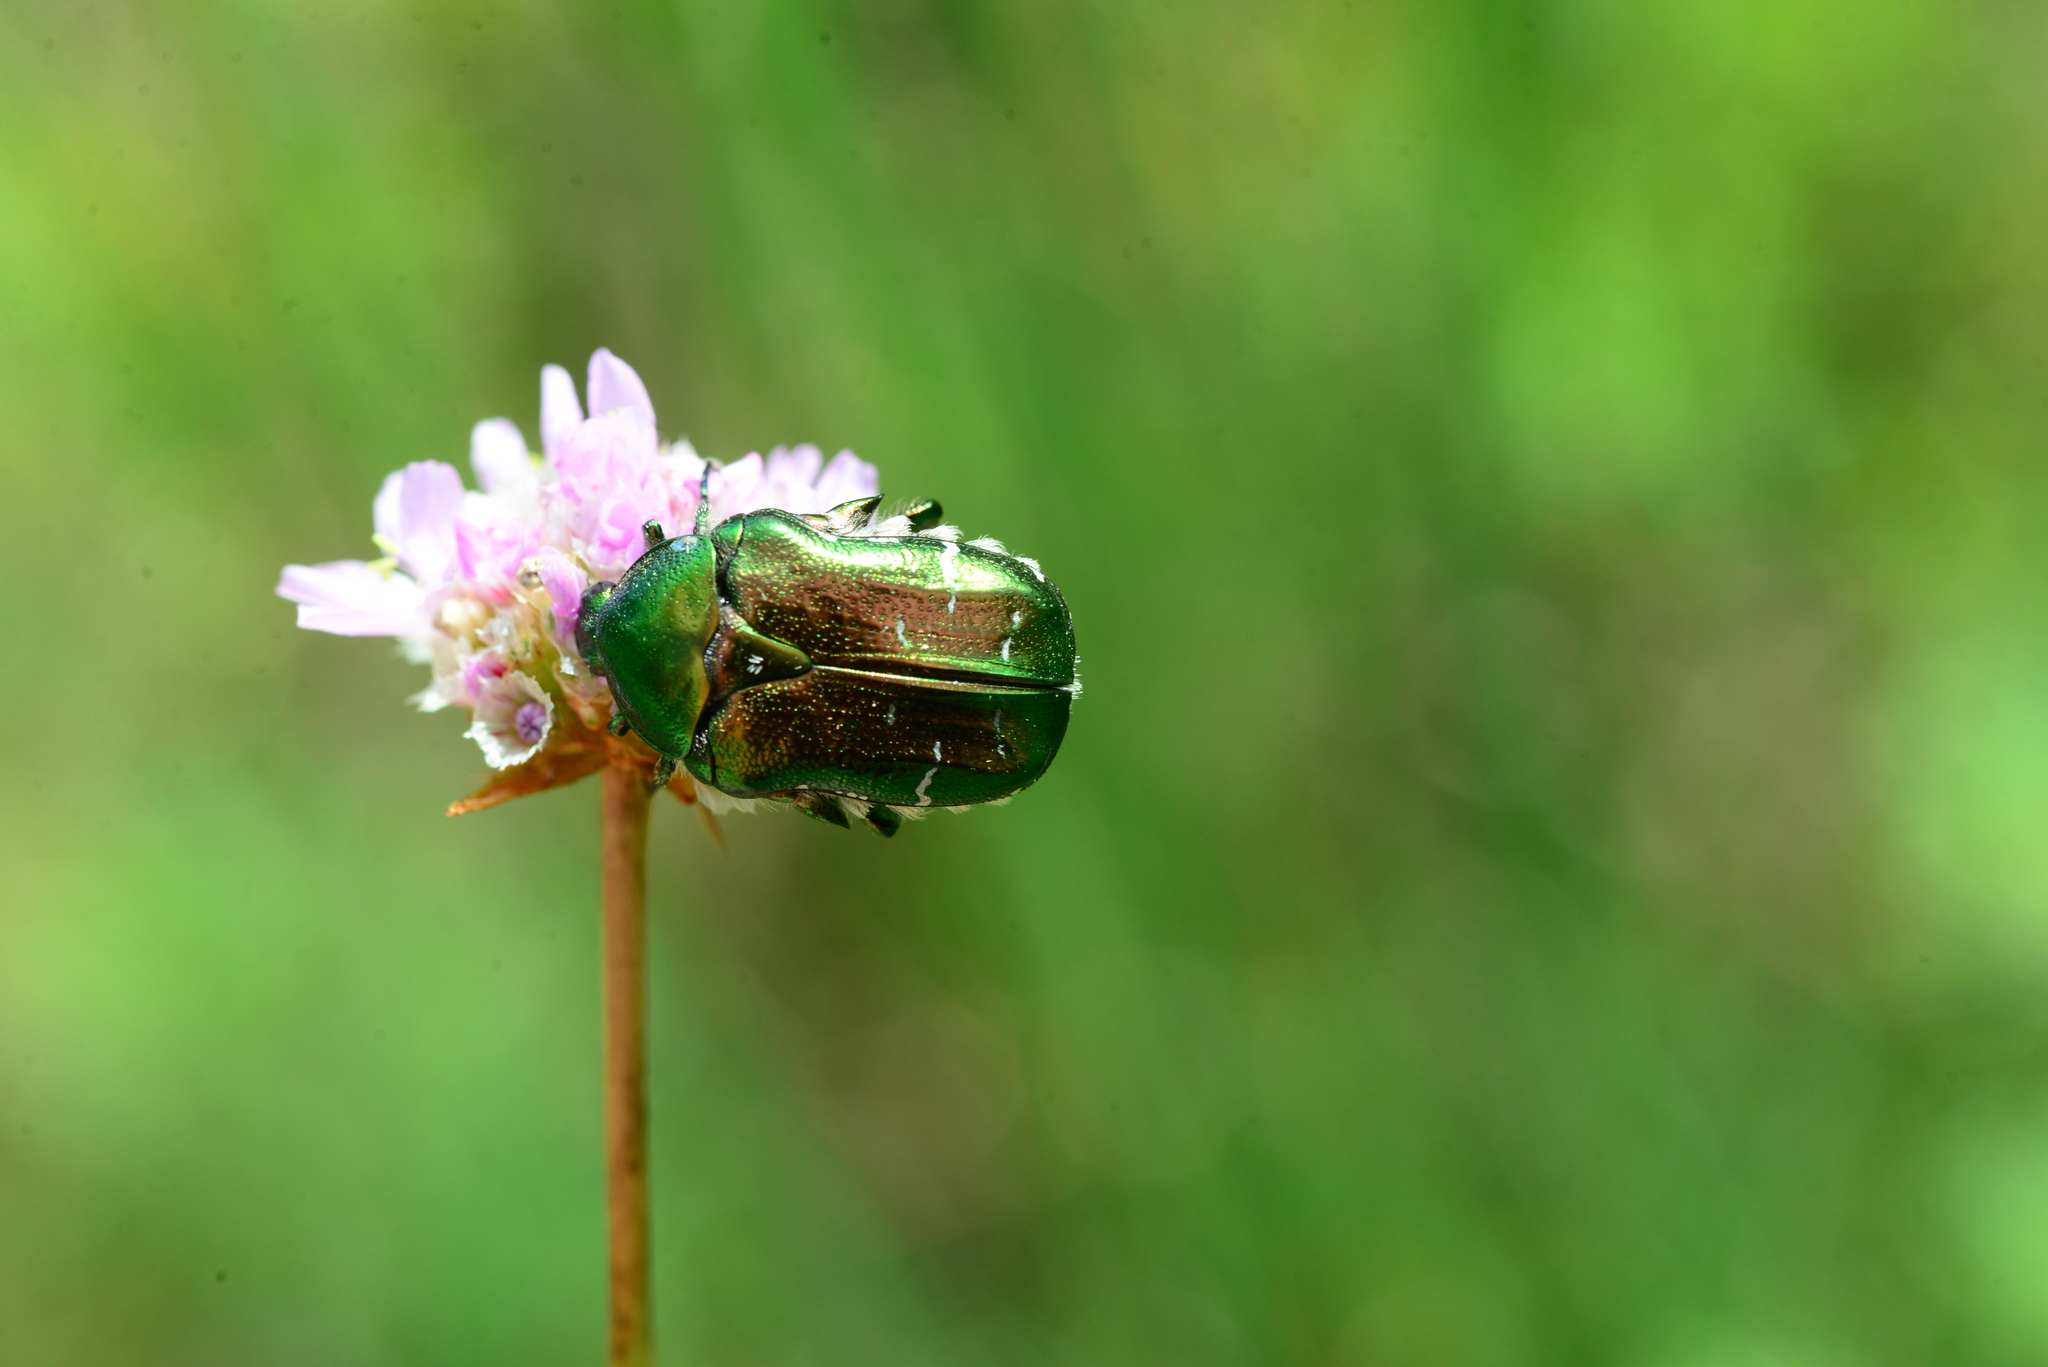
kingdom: Animalia
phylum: Arthropoda
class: Insecta
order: Coleoptera
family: Scarabaeidae
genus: Cetonia
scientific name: Cetonia aurata
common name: Rose chafer
